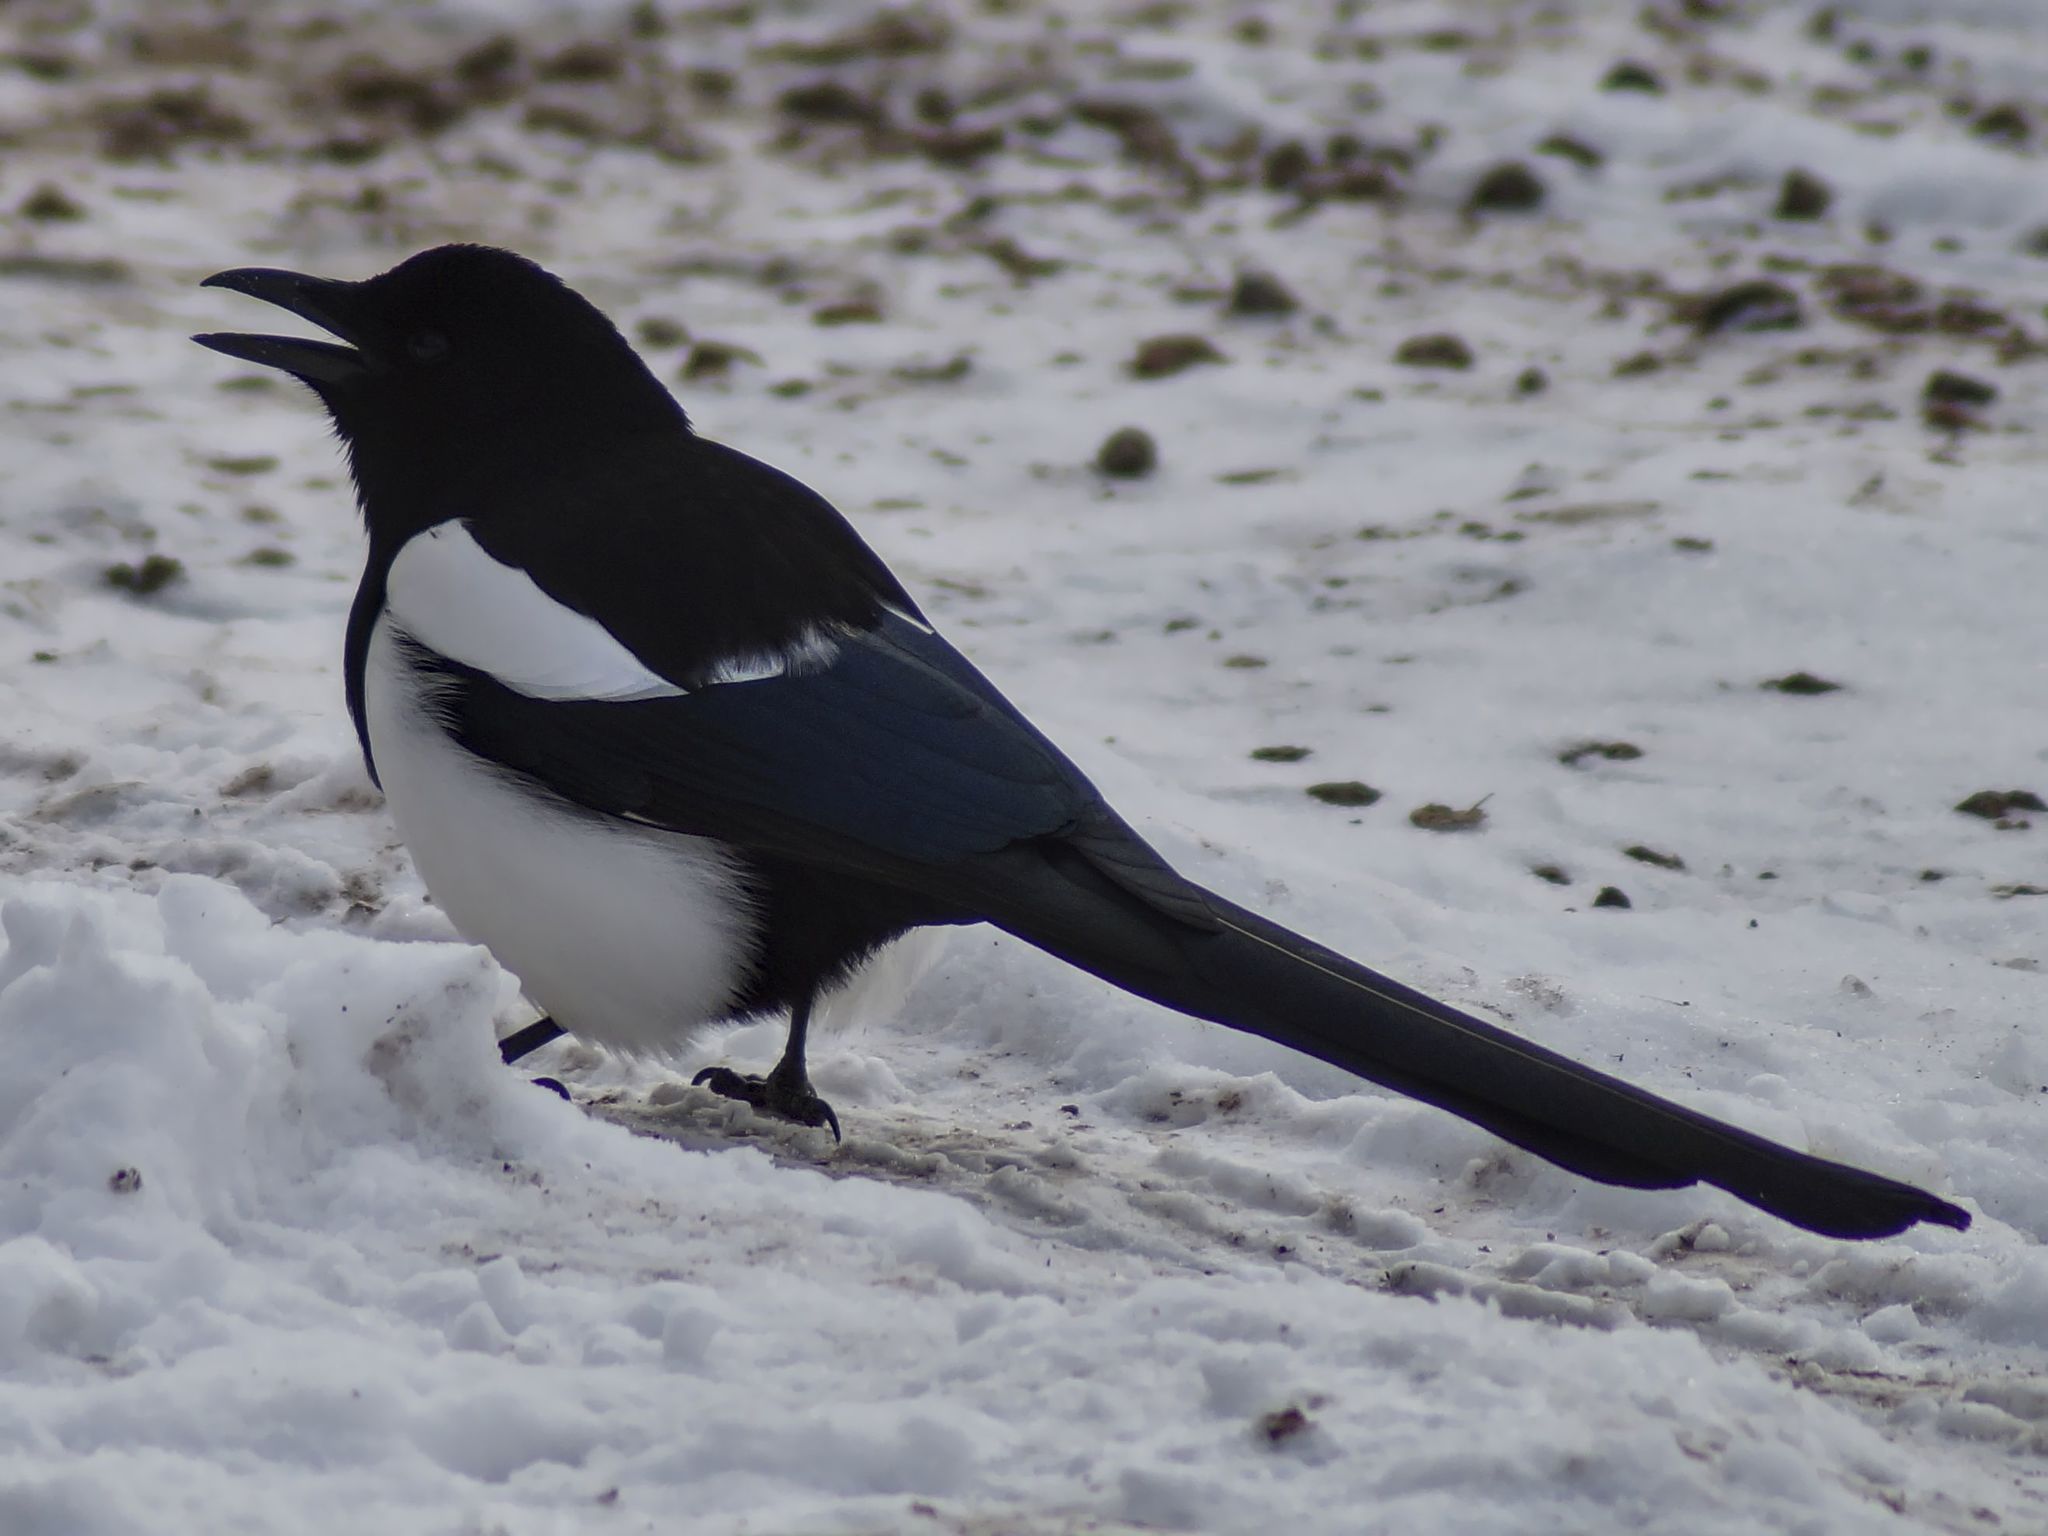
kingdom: Animalia
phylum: Chordata
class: Aves
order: Passeriformes
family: Corvidae
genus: Pica
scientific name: Pica hudsonia
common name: Black-billed magpie
